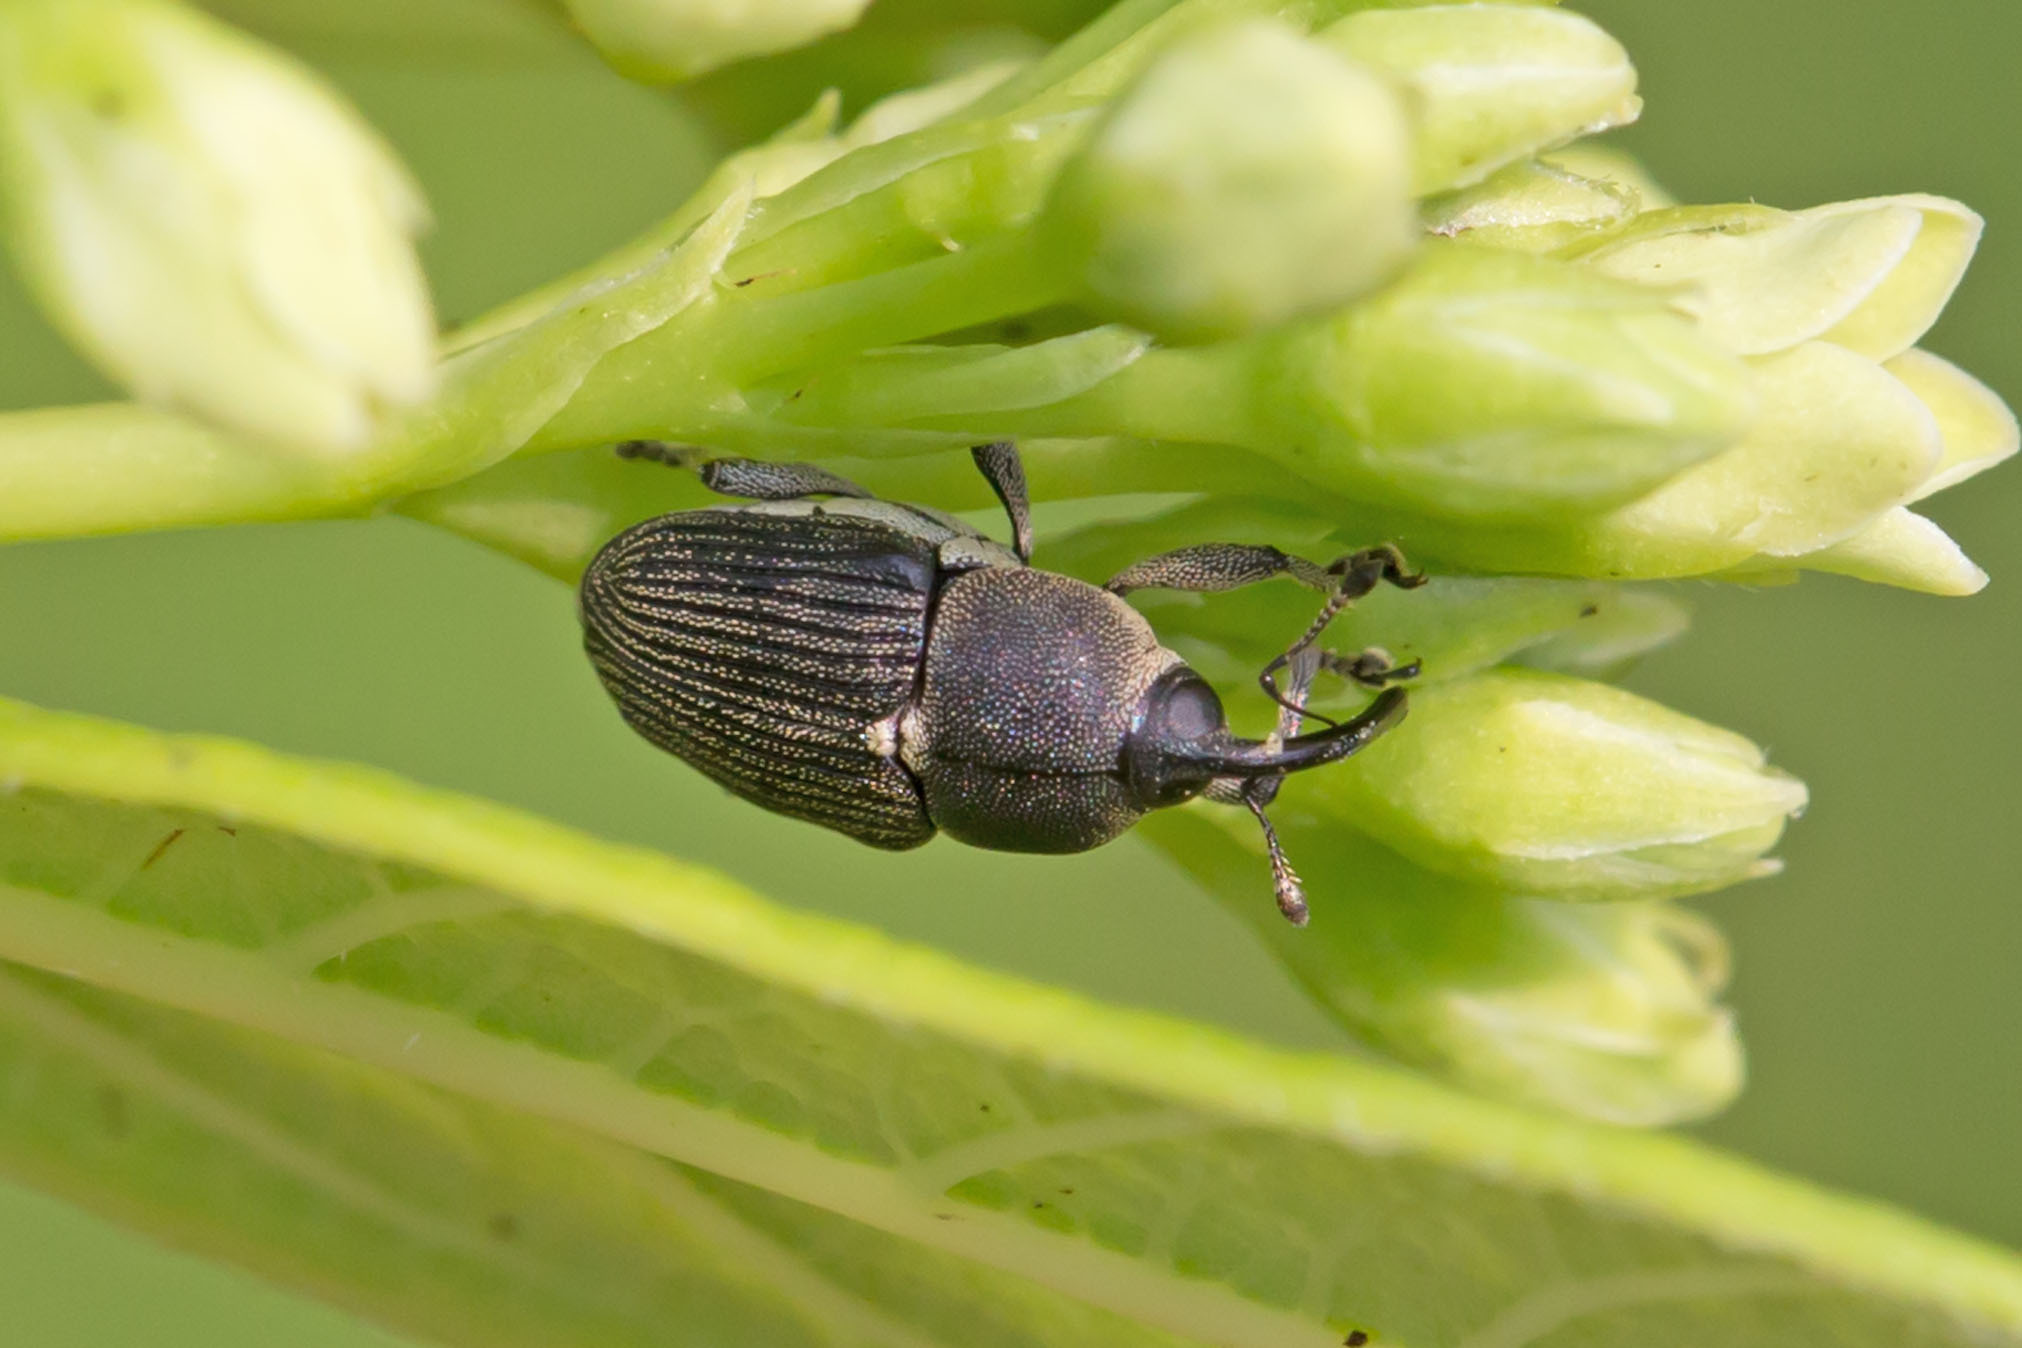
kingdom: Animalia
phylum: Arthropoda
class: Insecta
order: Coleoptera
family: Curculionidae
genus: Odontocorynus
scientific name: Odontocorynus salebrosus
